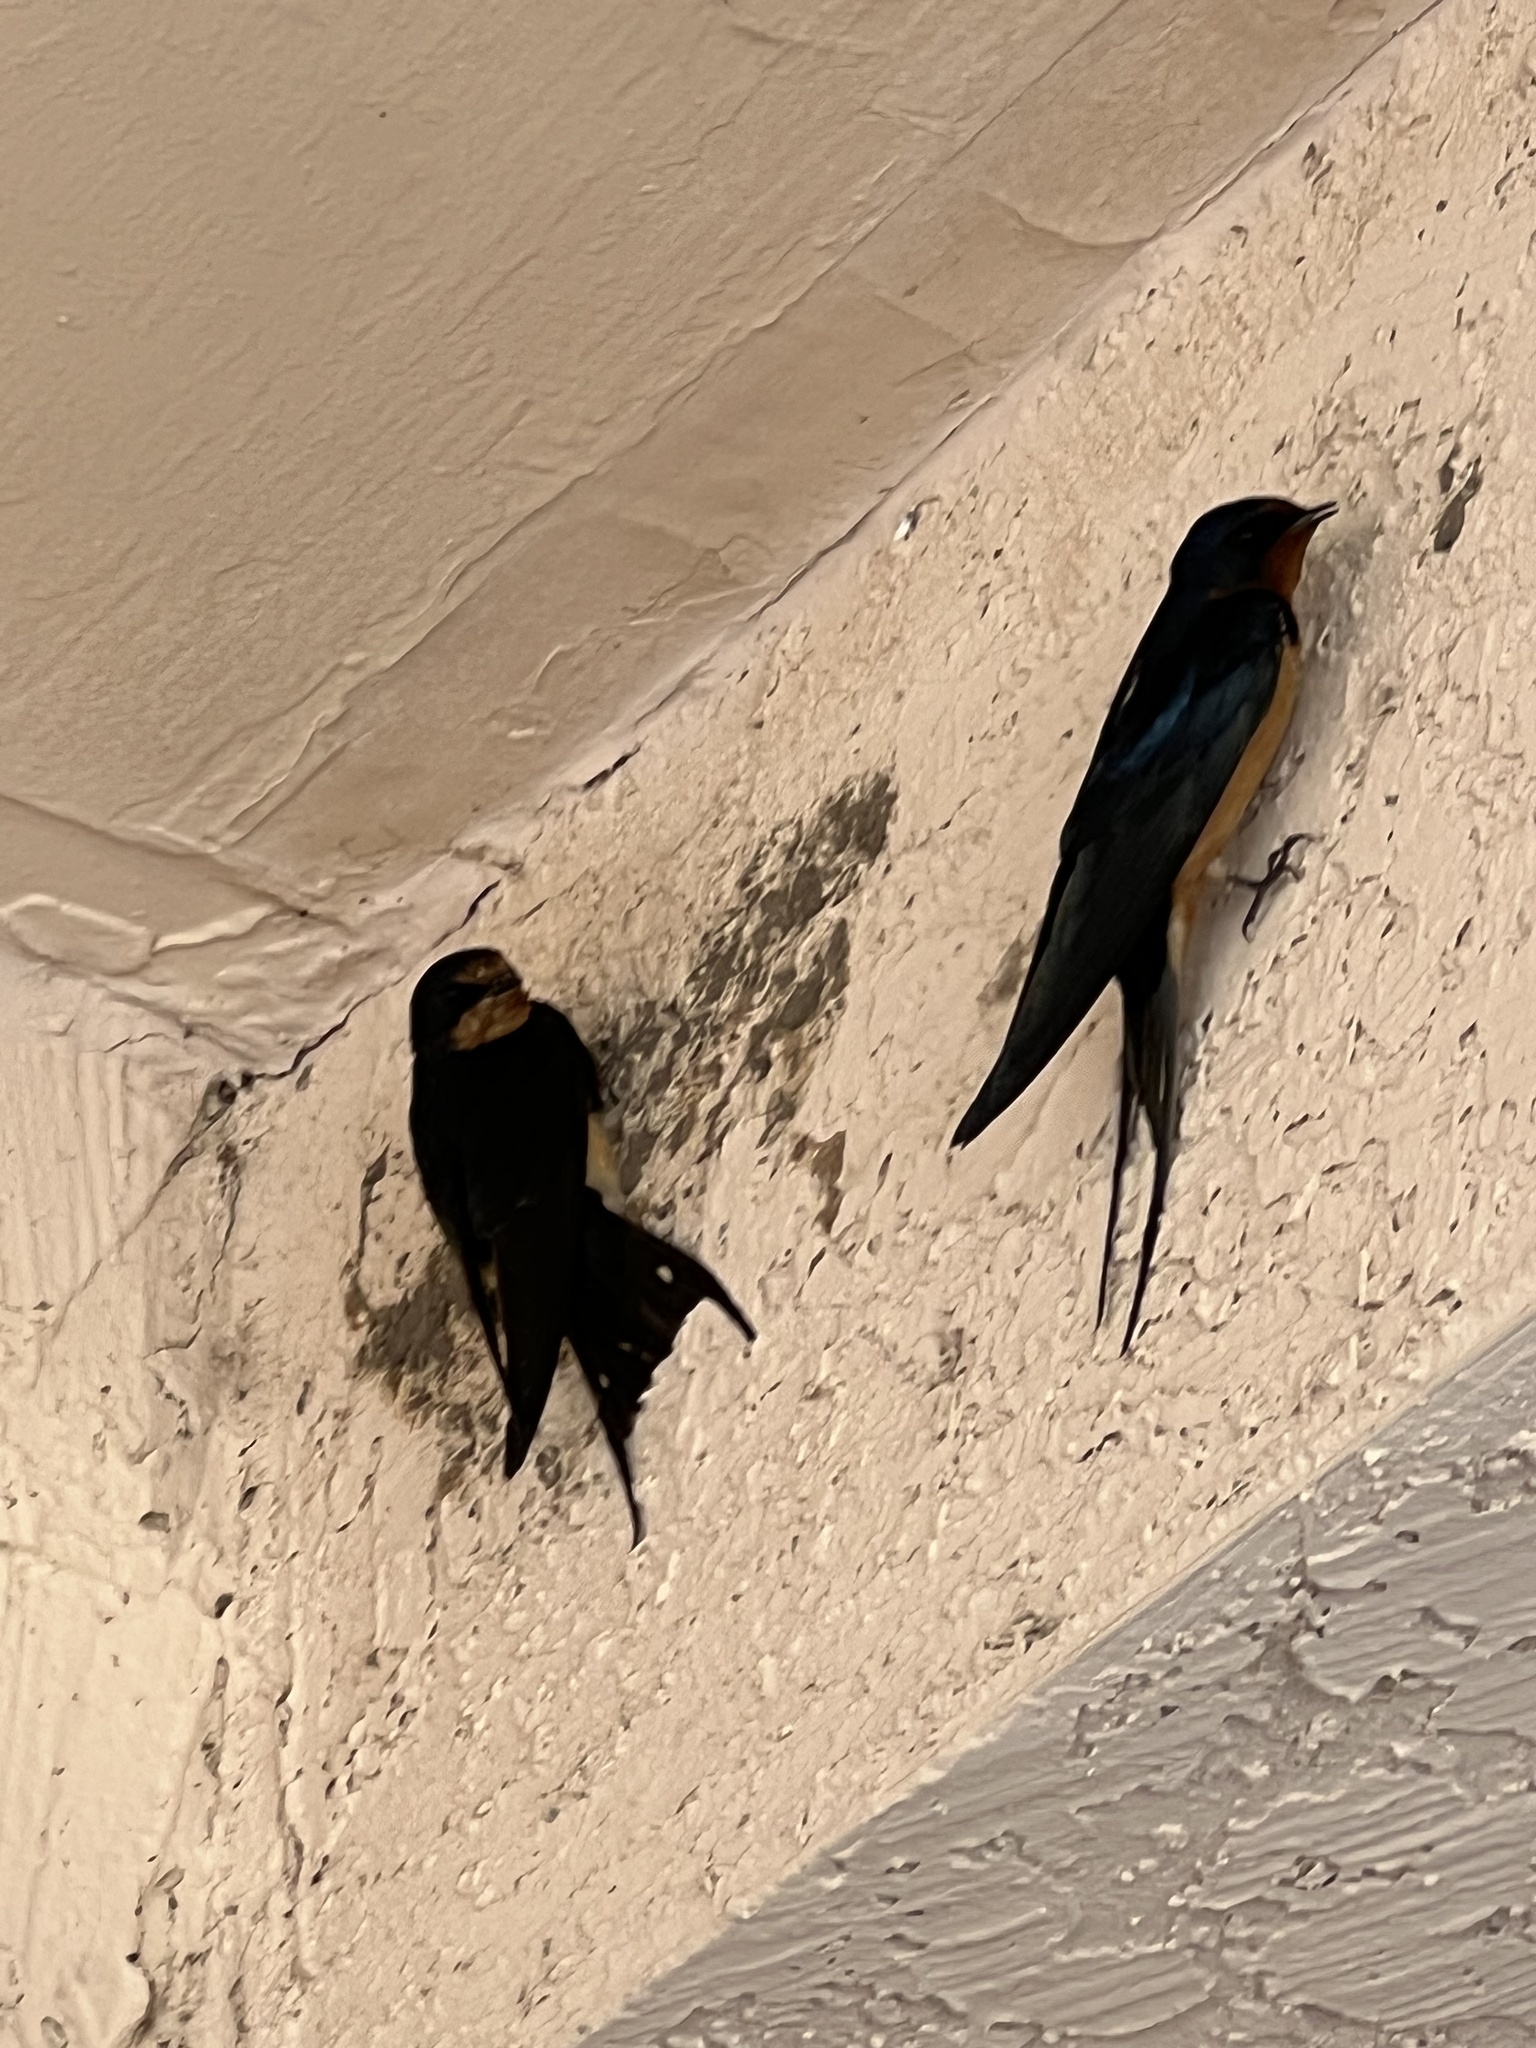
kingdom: Animalia
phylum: Chordata
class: Aves
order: Passeriformes
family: Hirundinidae
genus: Hirundo
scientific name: Hirundo rustica
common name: Barn swallow
